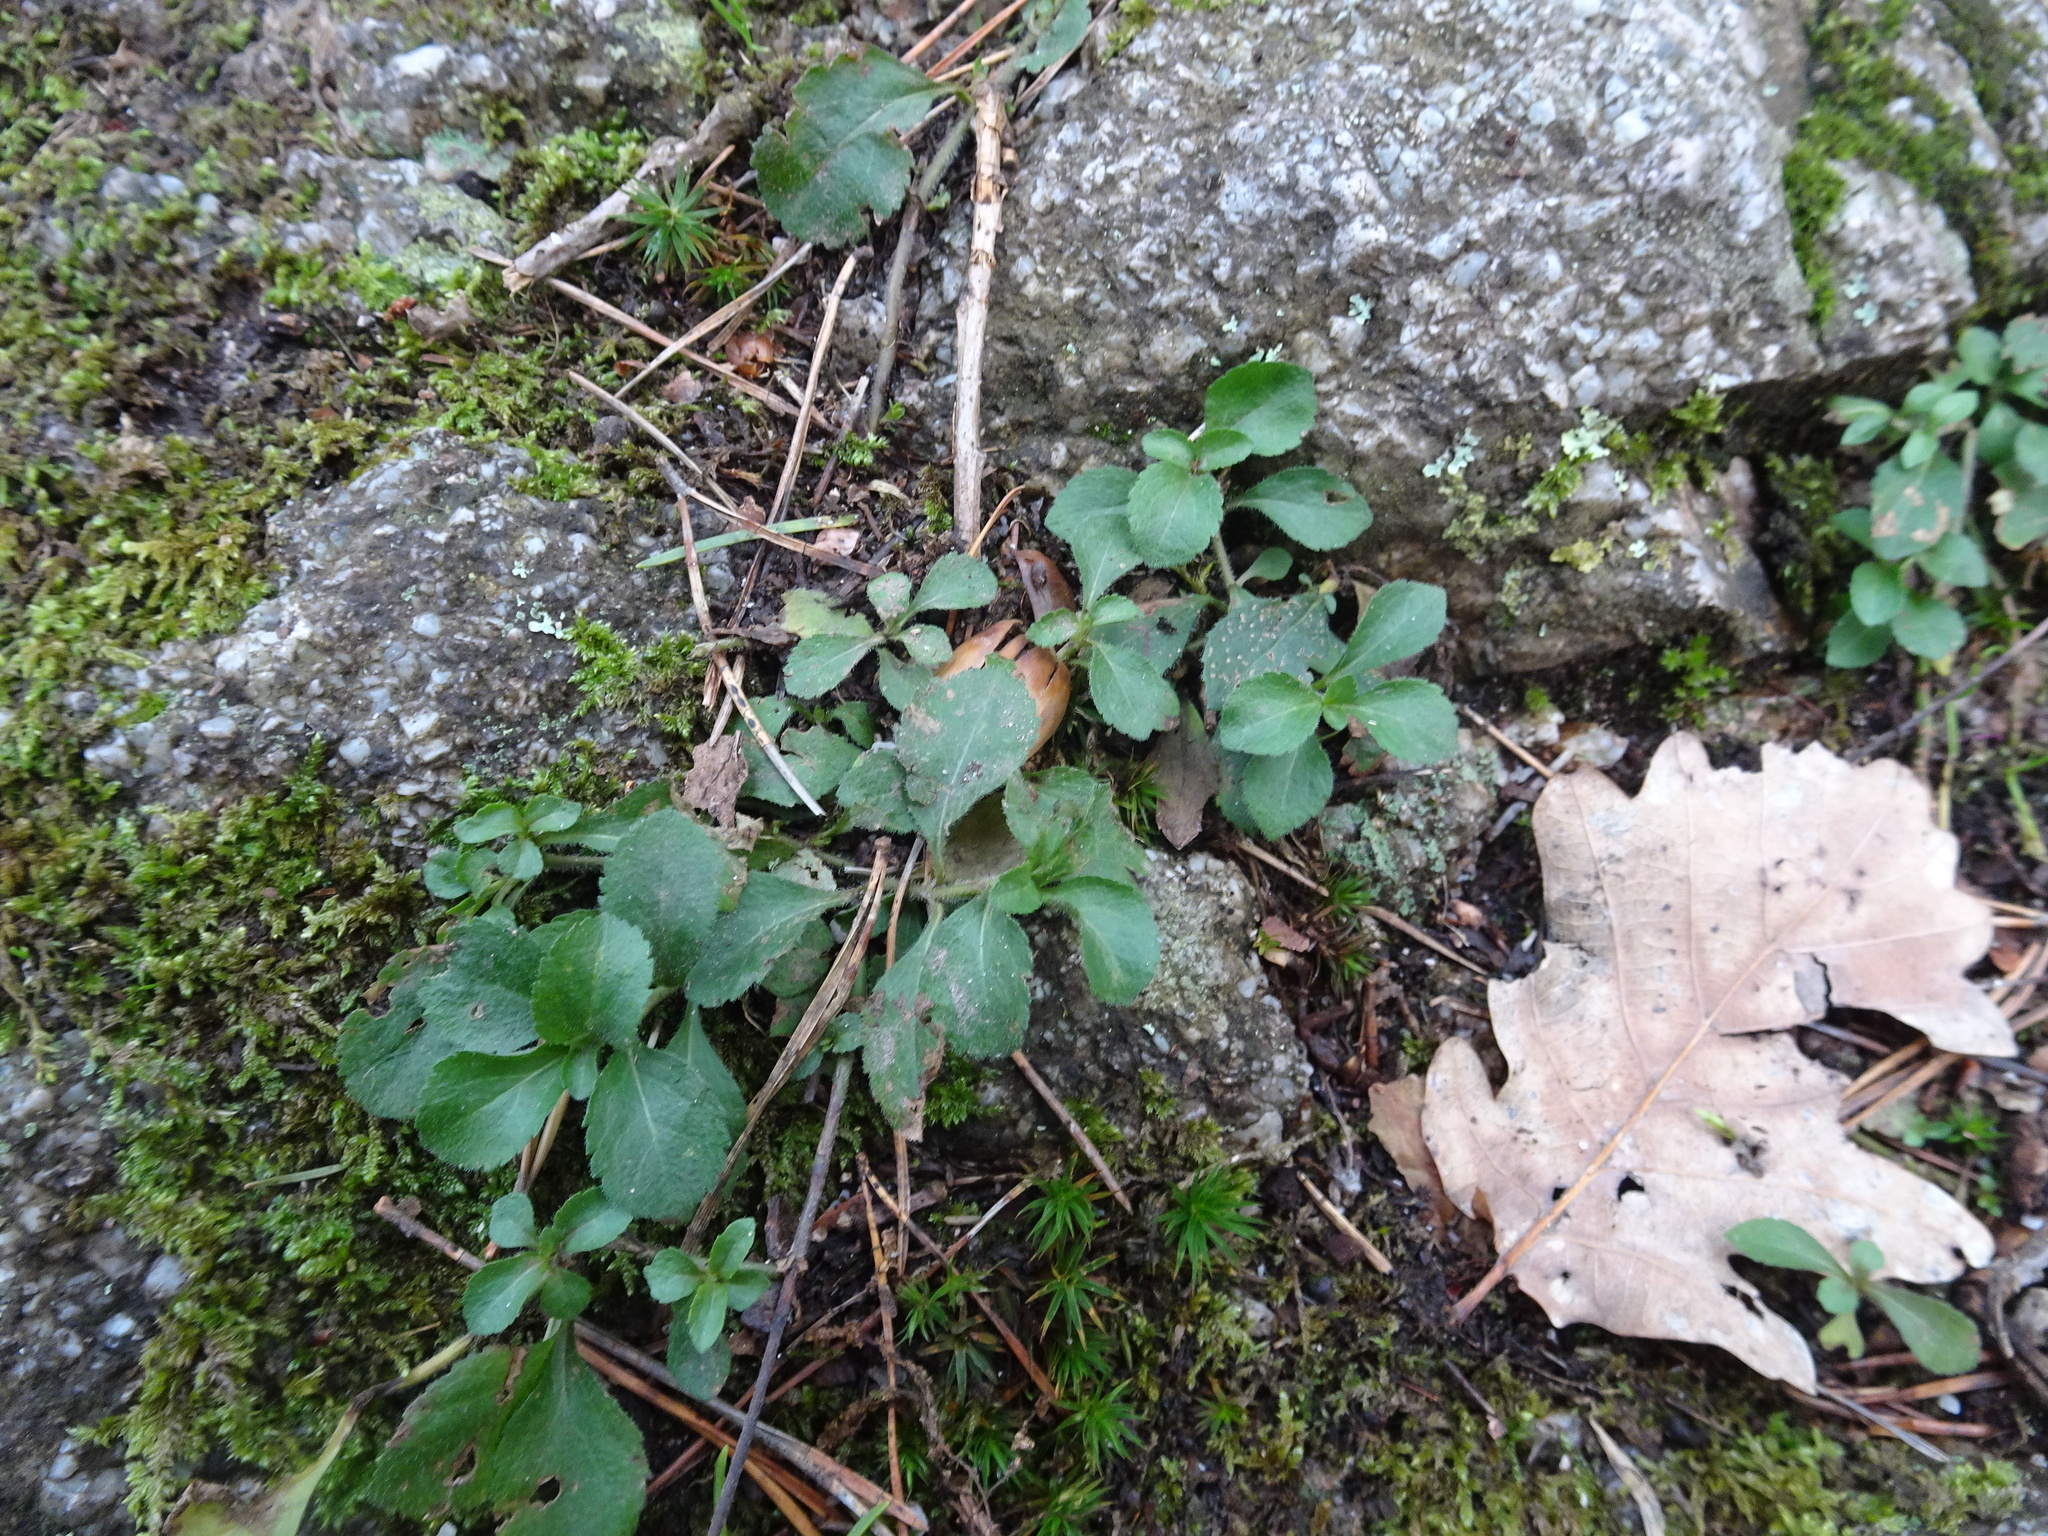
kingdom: Plantae
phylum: Tracheophyta
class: Magnoliopsida
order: Lamiales
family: Plantaginaceae
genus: Veronica
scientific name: Veronica officinalis
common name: Common speedwell
